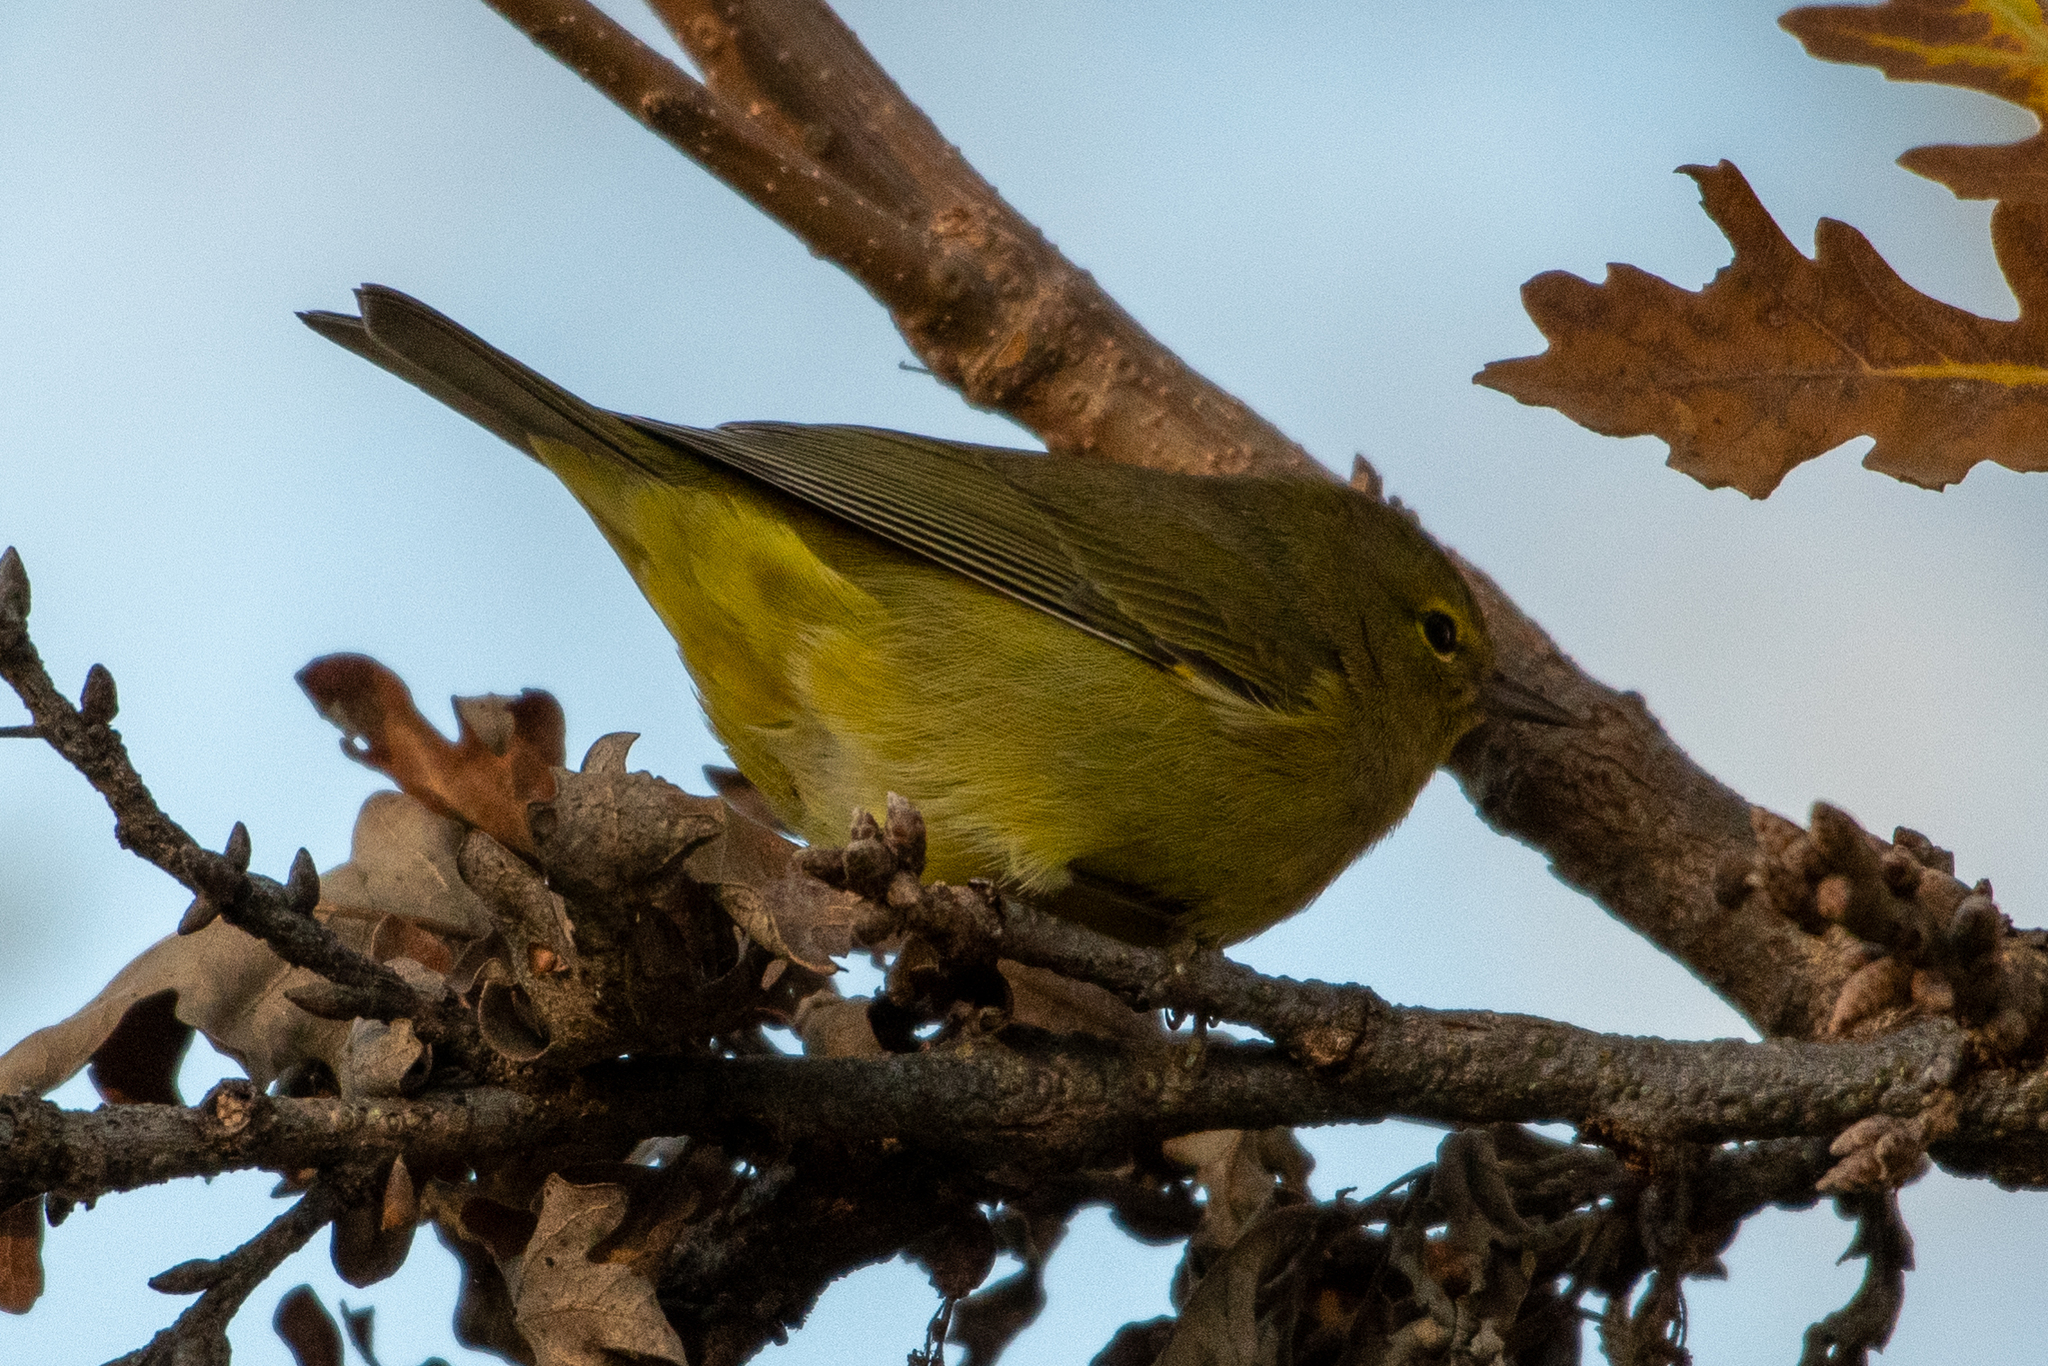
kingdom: Animalia
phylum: Chordata
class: Aves
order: Passeriformes
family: Parulidae
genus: Leiothlypis
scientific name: Leiothlypis celata
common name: Orange-crowned warbler
